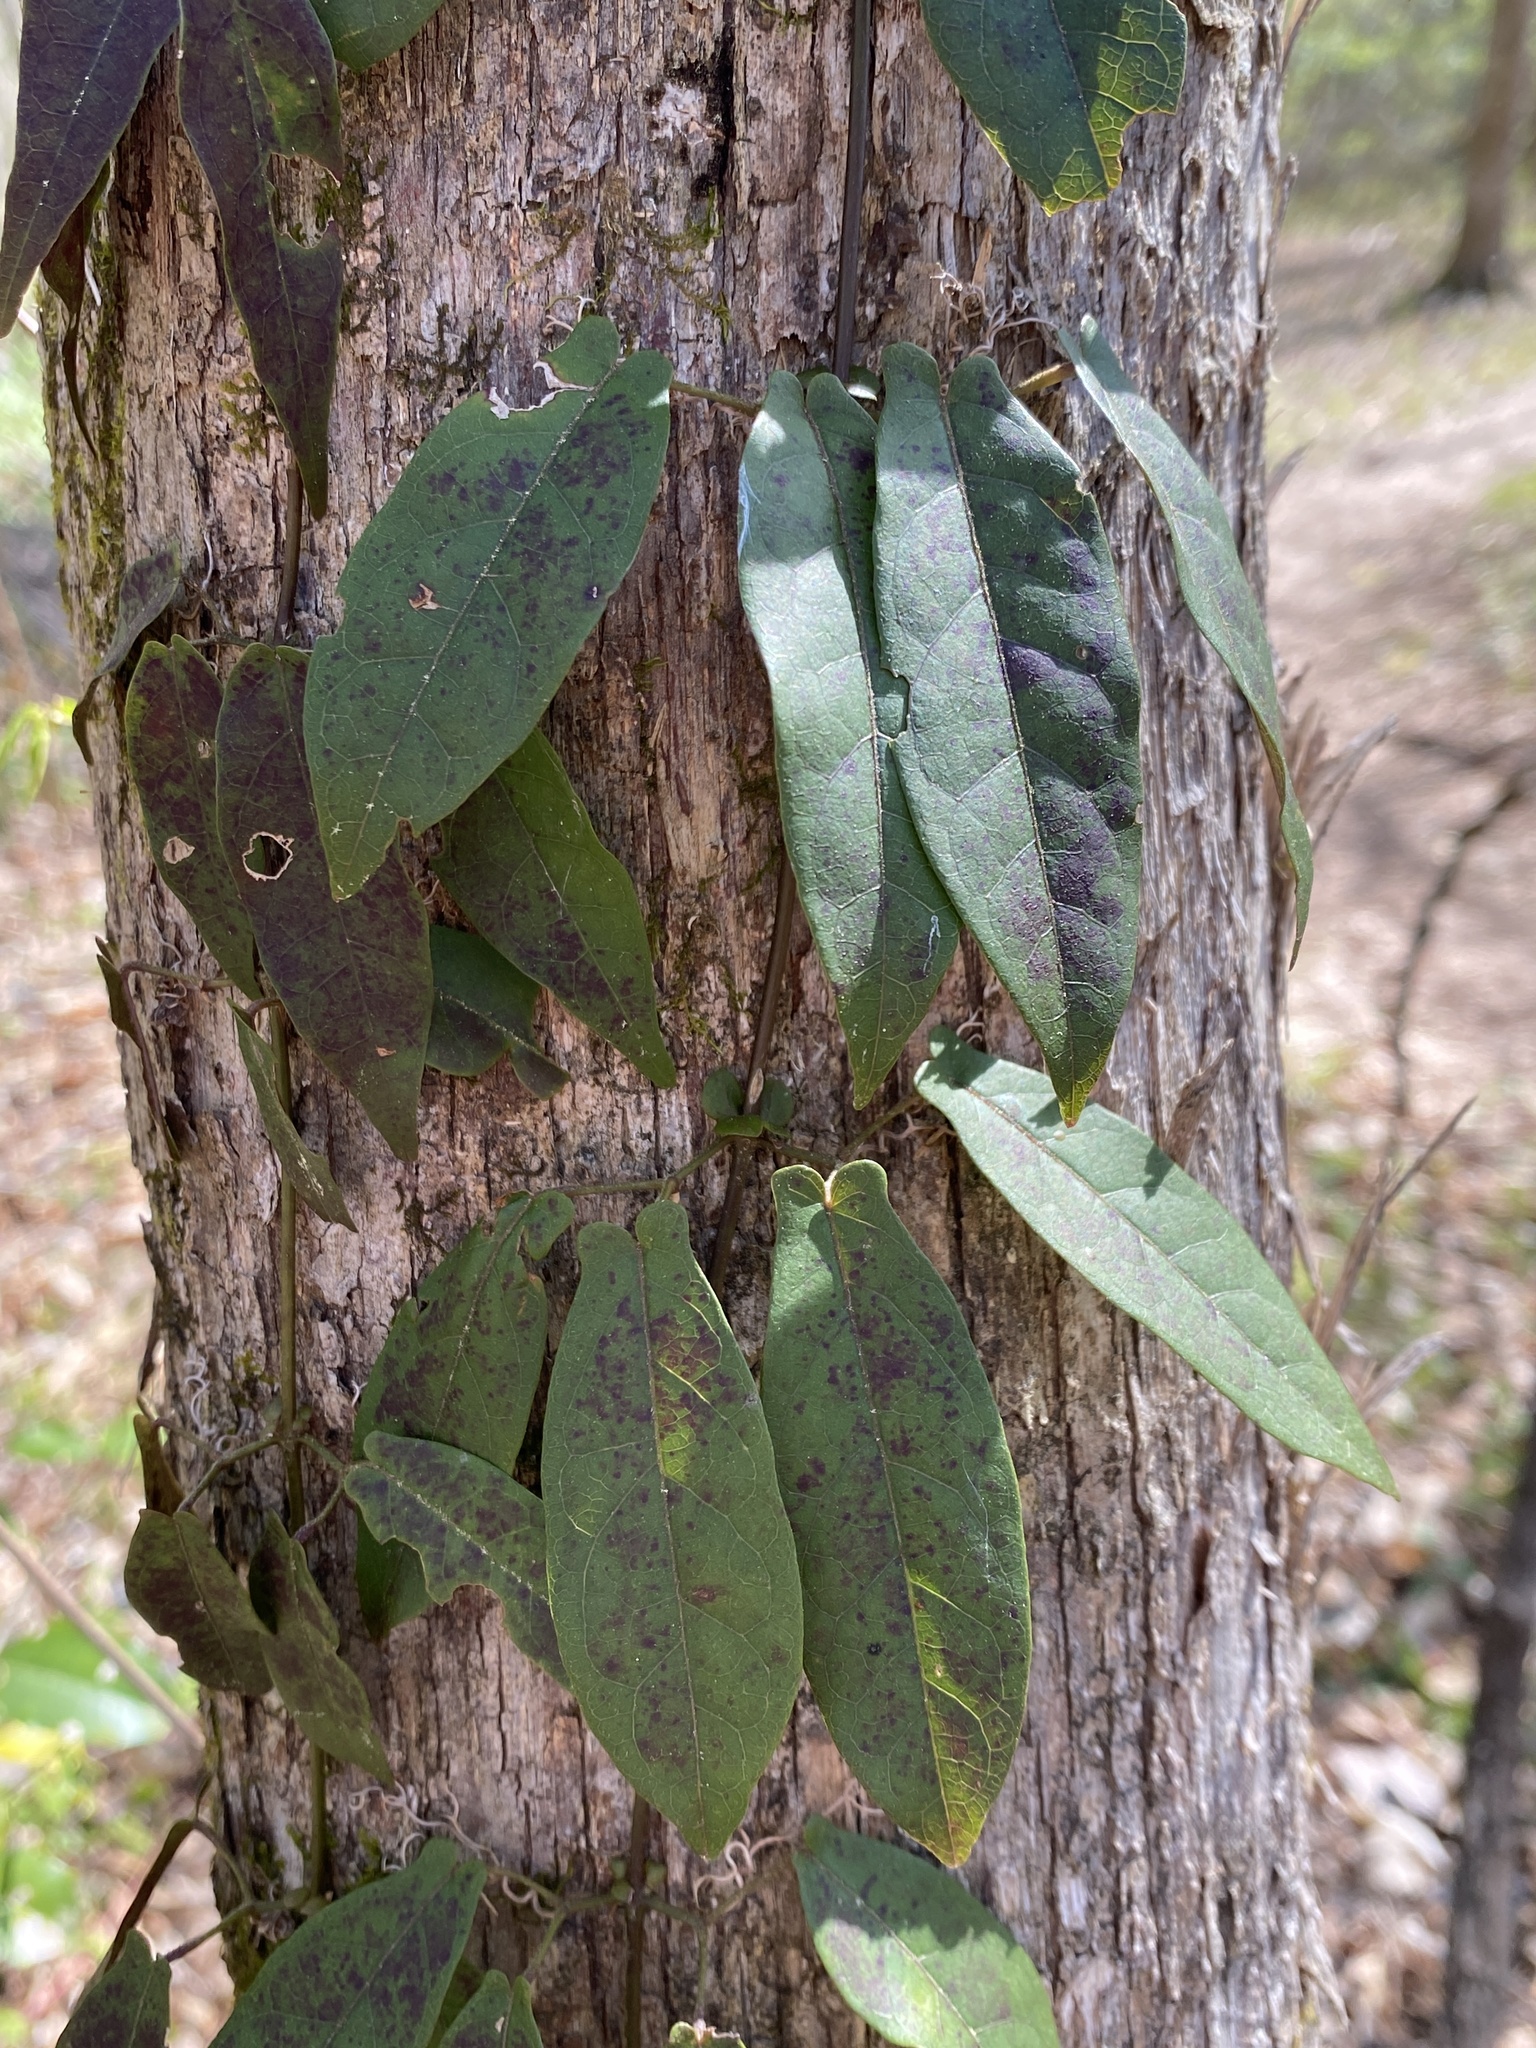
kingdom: Plantae
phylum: Tracheophyta
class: Magnoliopsida
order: Lamiales
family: Bignoniaceae
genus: Bignonia
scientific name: Bignonia capreolata
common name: Crossvine
